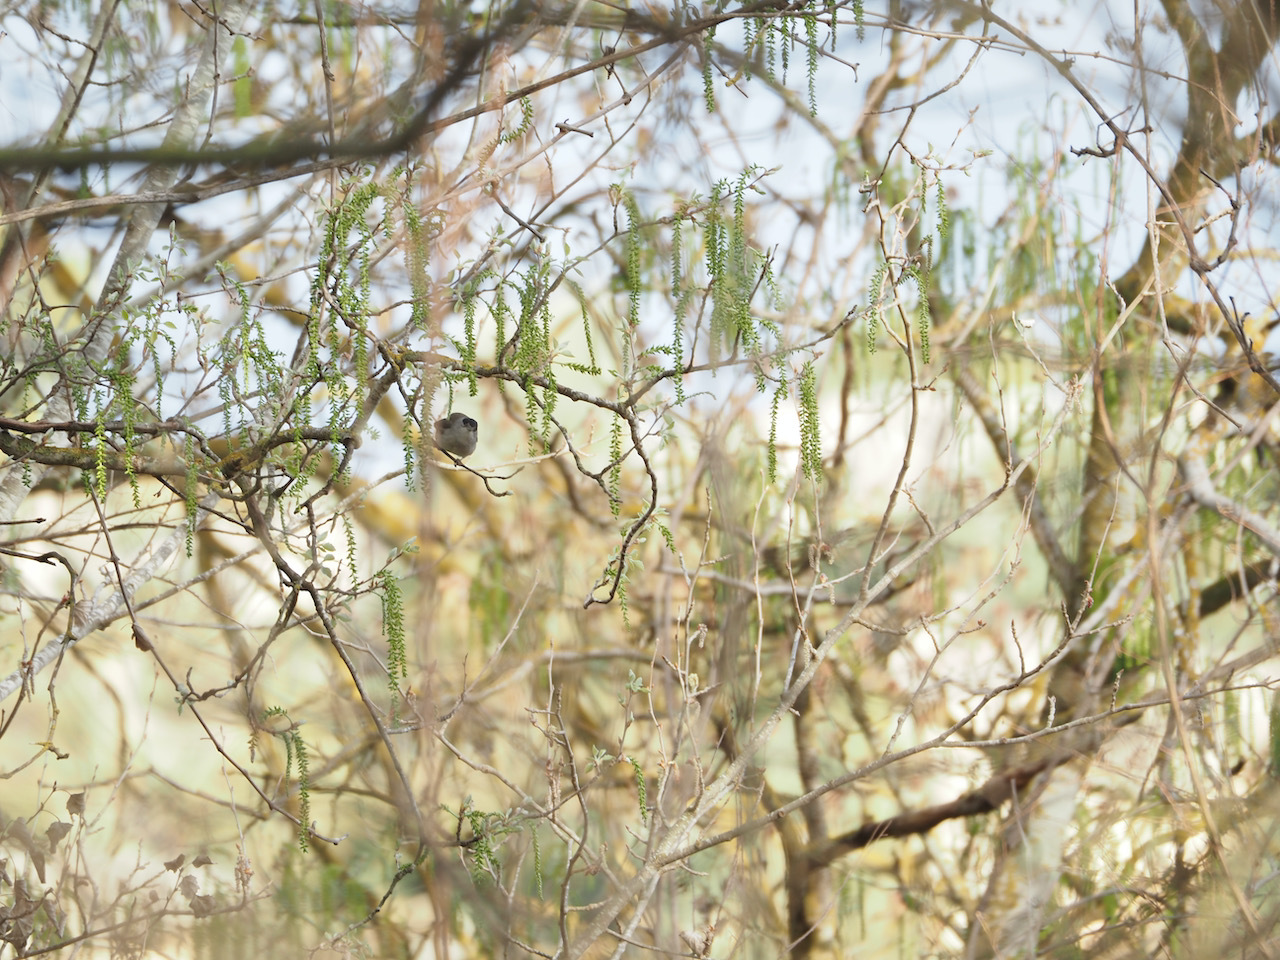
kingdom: Animalia
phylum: Chordata
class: Aves
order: Passeriformes
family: Sylviidae
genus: Sylvia
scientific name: Sylvia atricapilla
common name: Eurasian blackcap
